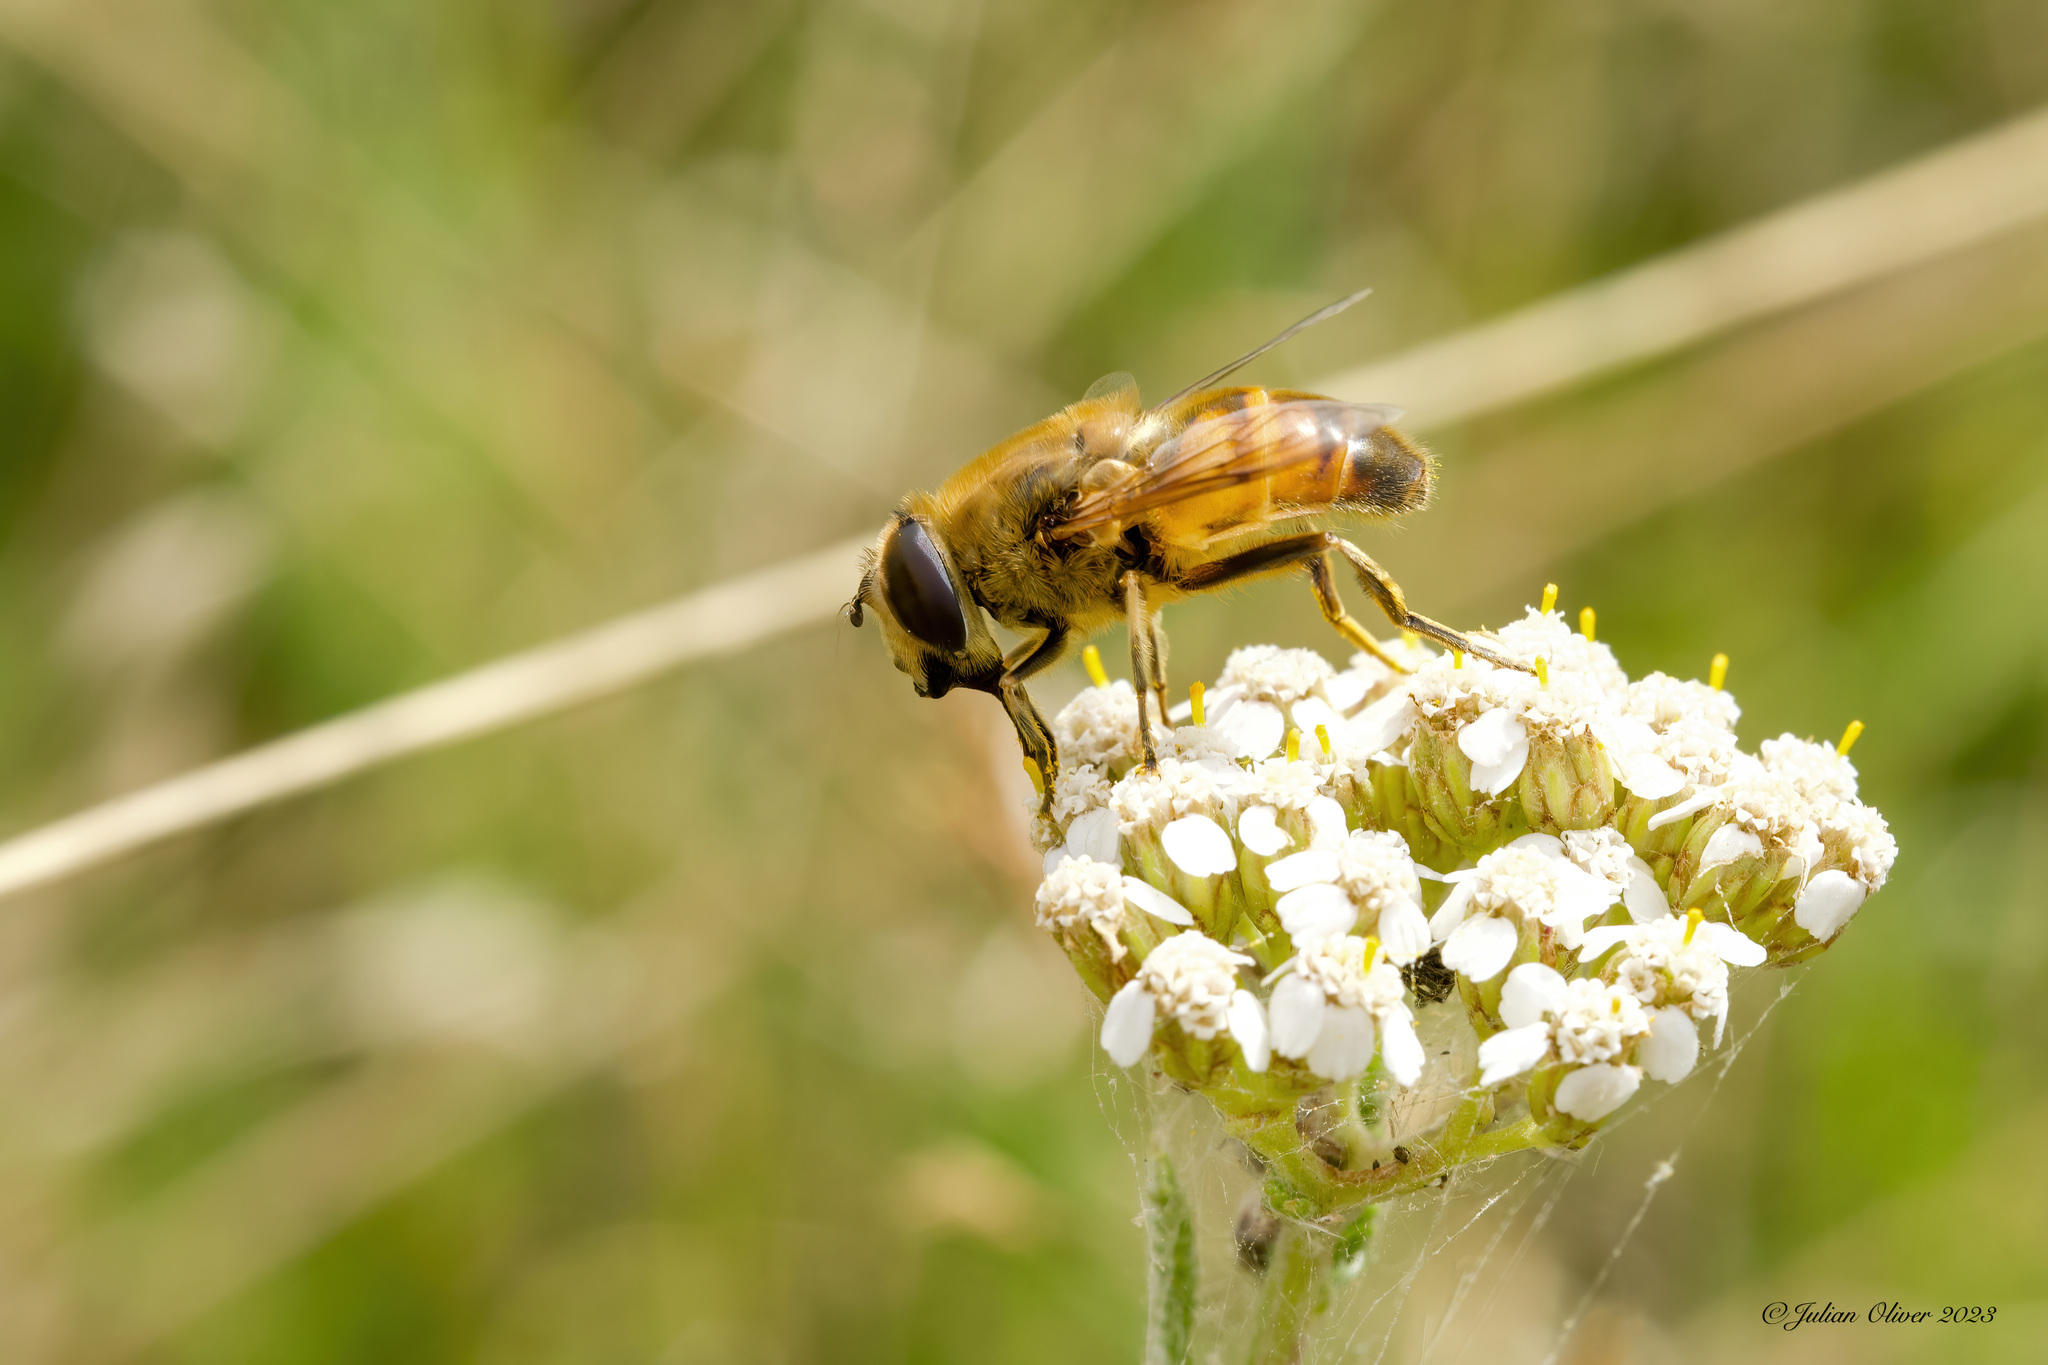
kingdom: Animalia
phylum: Arthropoda
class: Insecta
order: Diptera
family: Syrphidae
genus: Eristalis
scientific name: Eristalis tenax
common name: Drone fly
